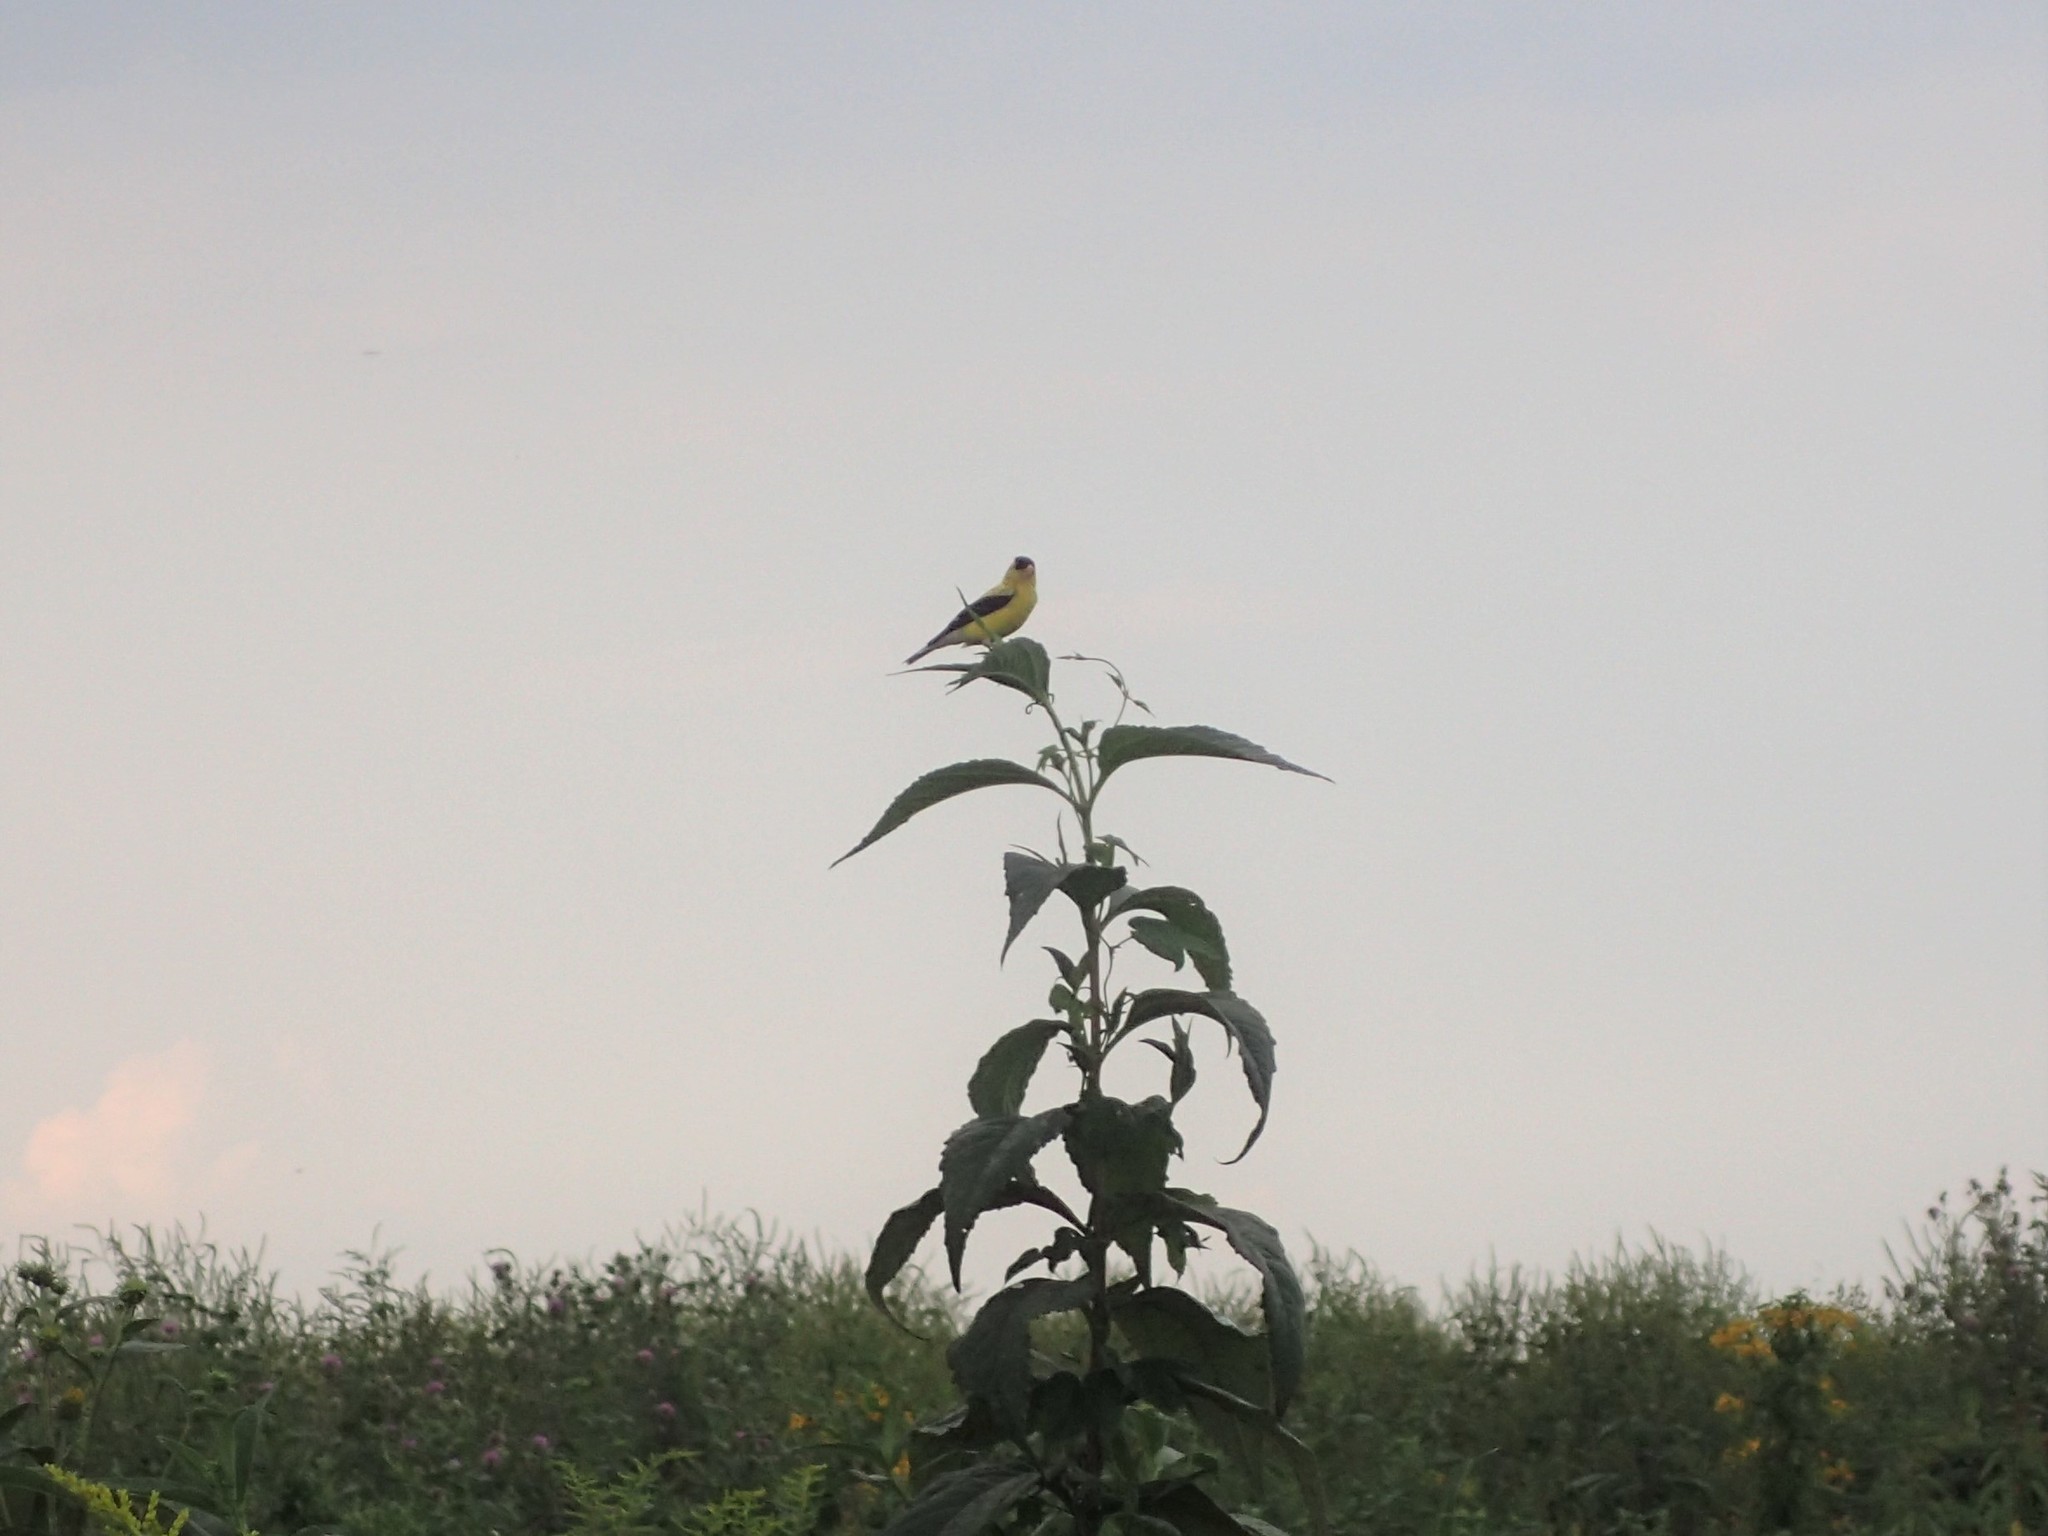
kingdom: Animalia
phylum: Chordata
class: Aves
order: Passeriformes
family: Fringillidae
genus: Spinus
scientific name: Spinus tristis
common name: American goldfinch
